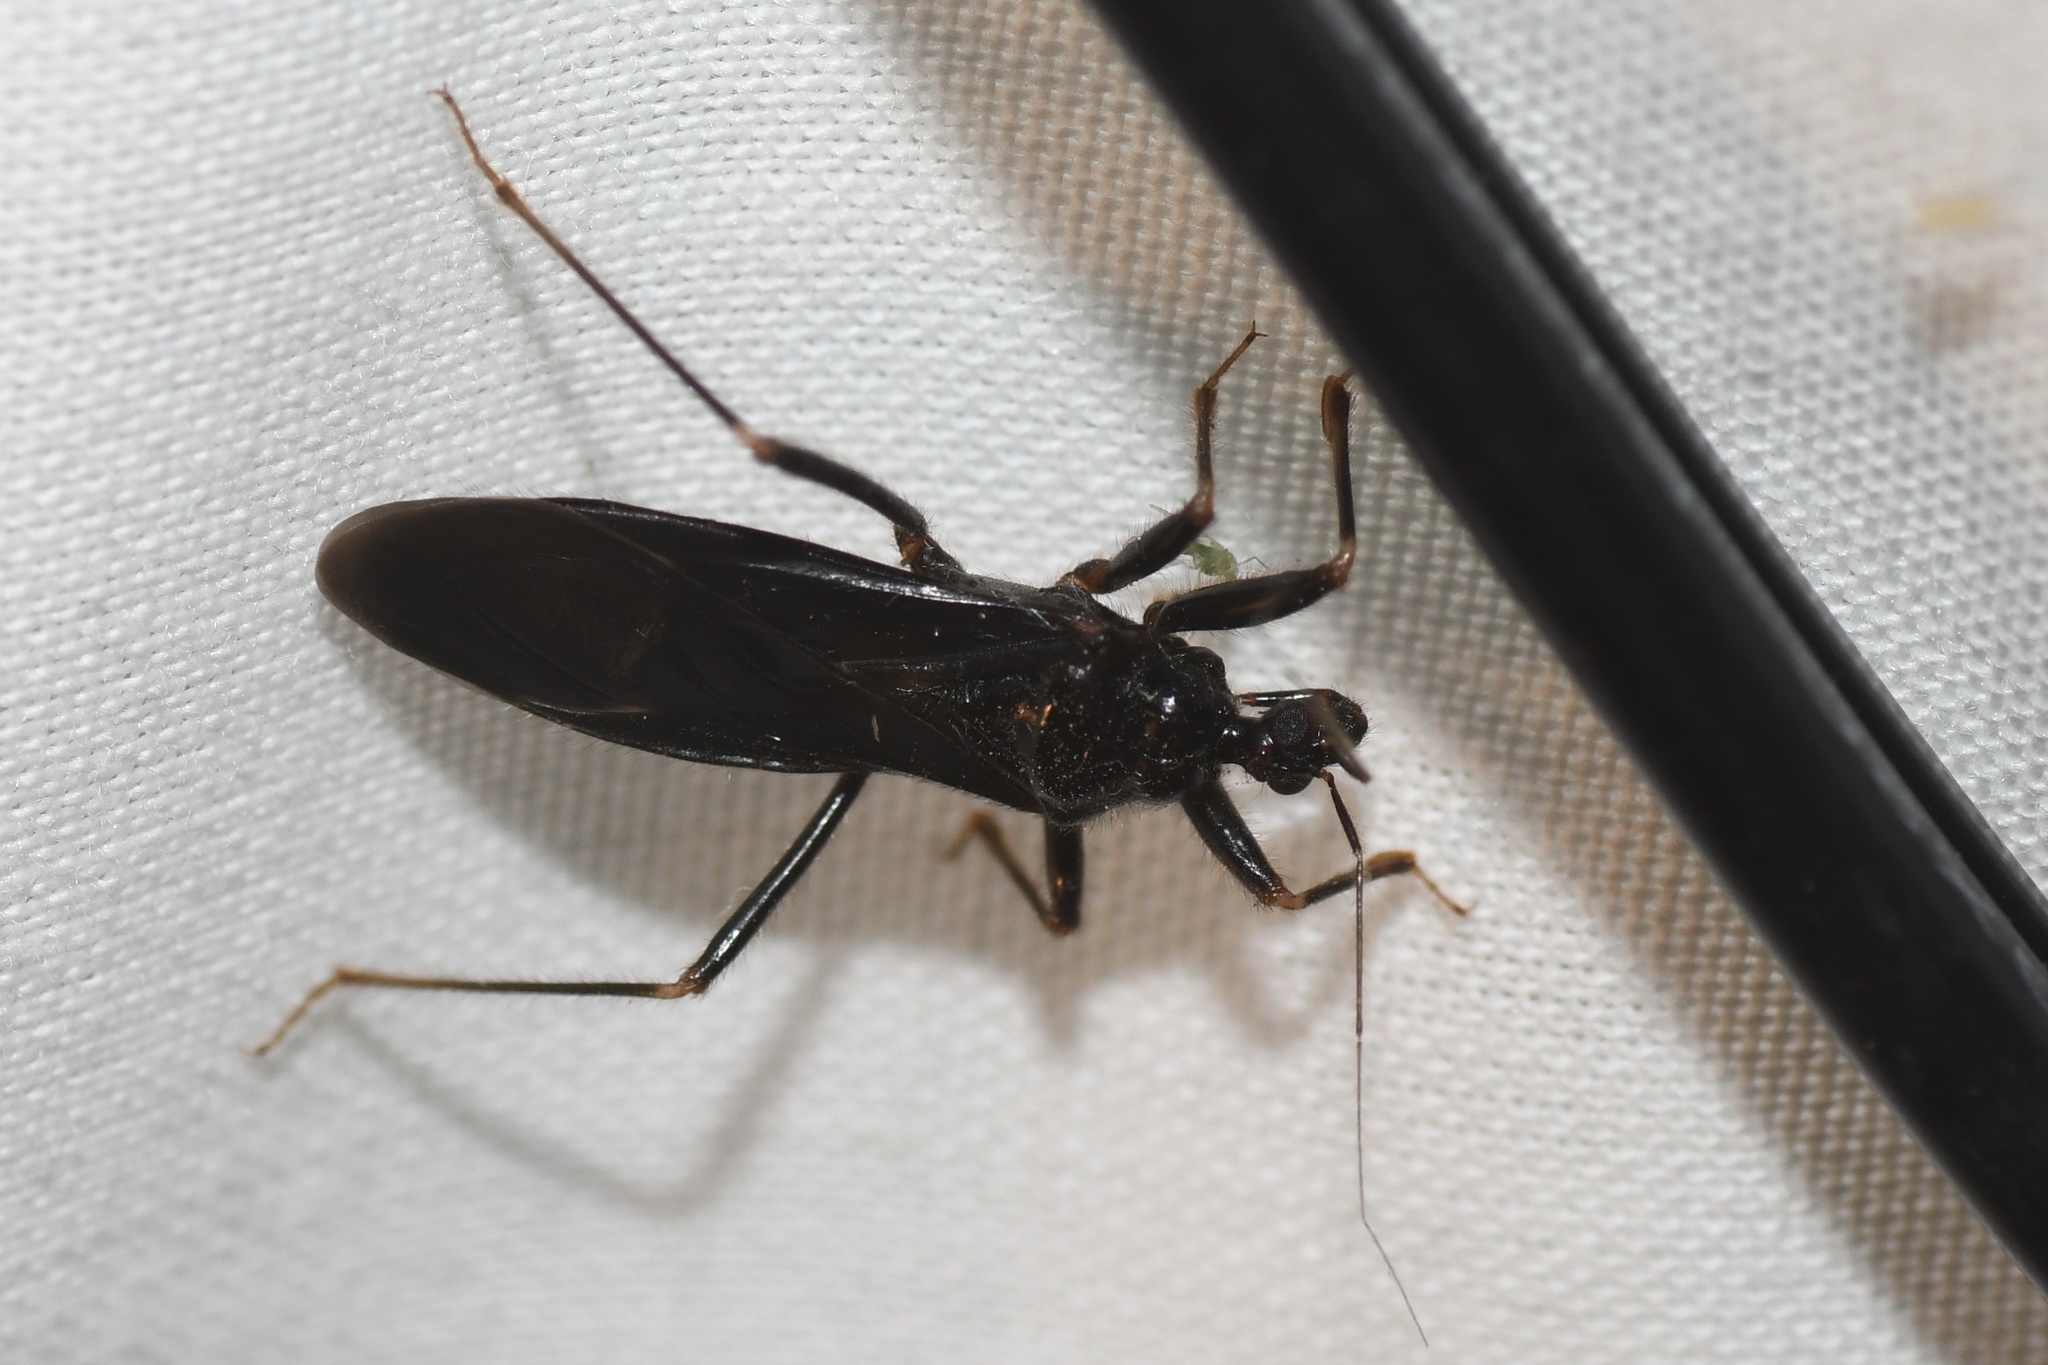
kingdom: Animalia
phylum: Arthropoda
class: Insecta
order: Hemiptera
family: Reduviidae
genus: Reduvius
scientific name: Reduvius personatus
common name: Masked hunter
